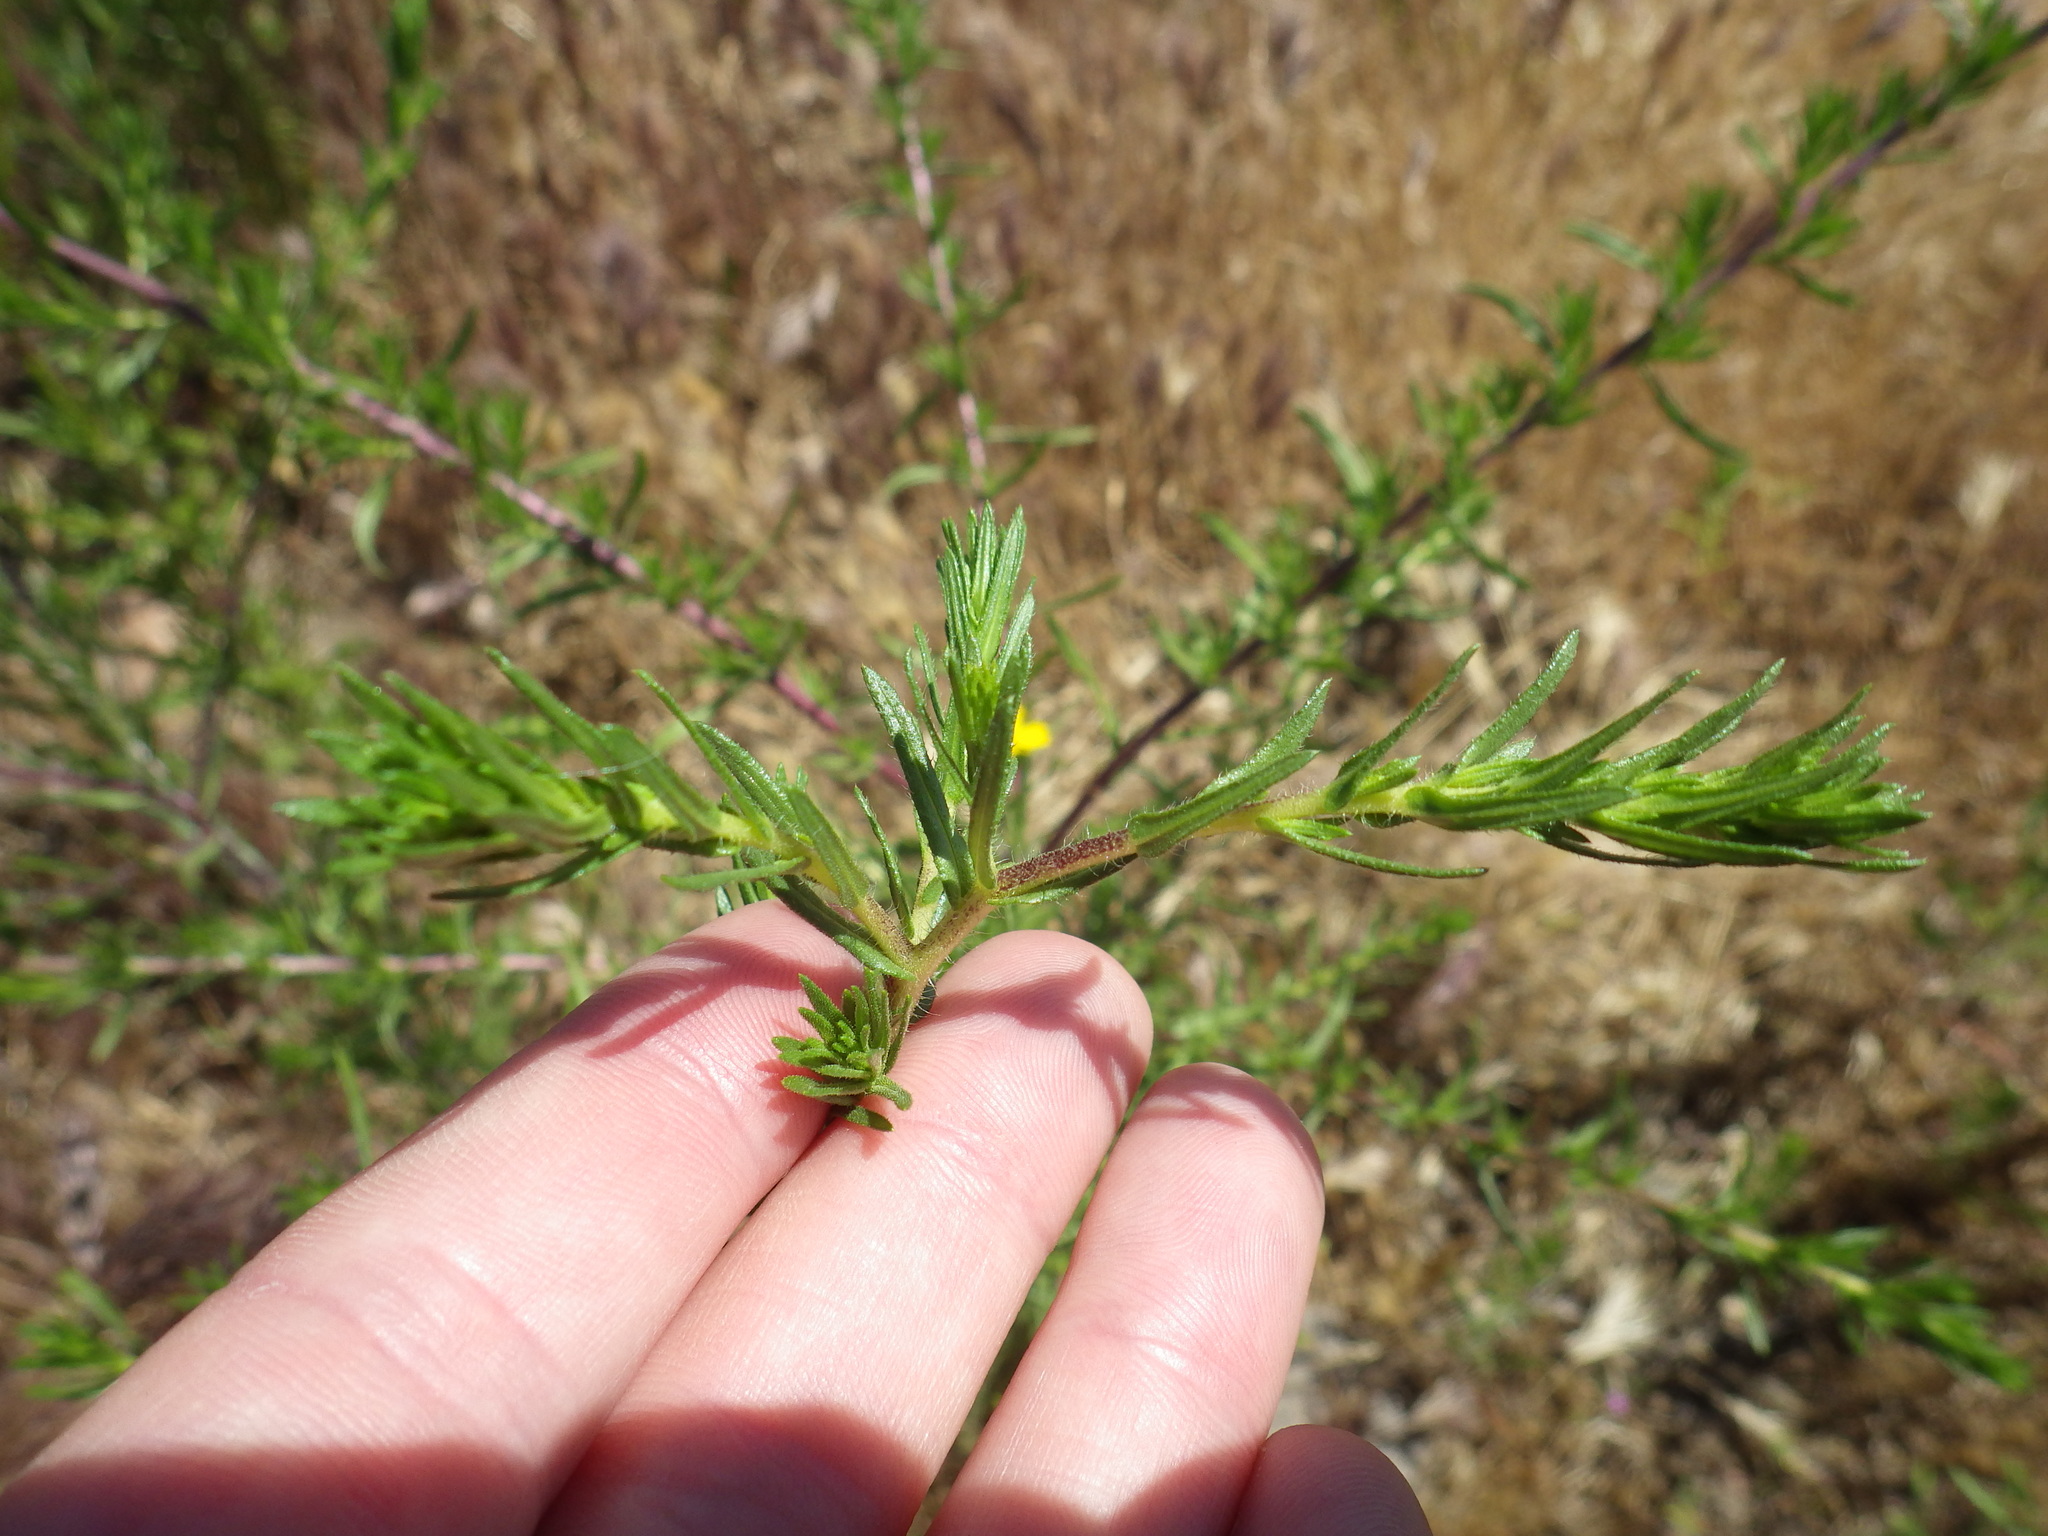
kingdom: Plantae
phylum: Tracheophyta
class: Magnoliopsida
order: Asterales
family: Asteraceae
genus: Deinandra
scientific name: Deinandra fasciculata
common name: Clustered tarweed
